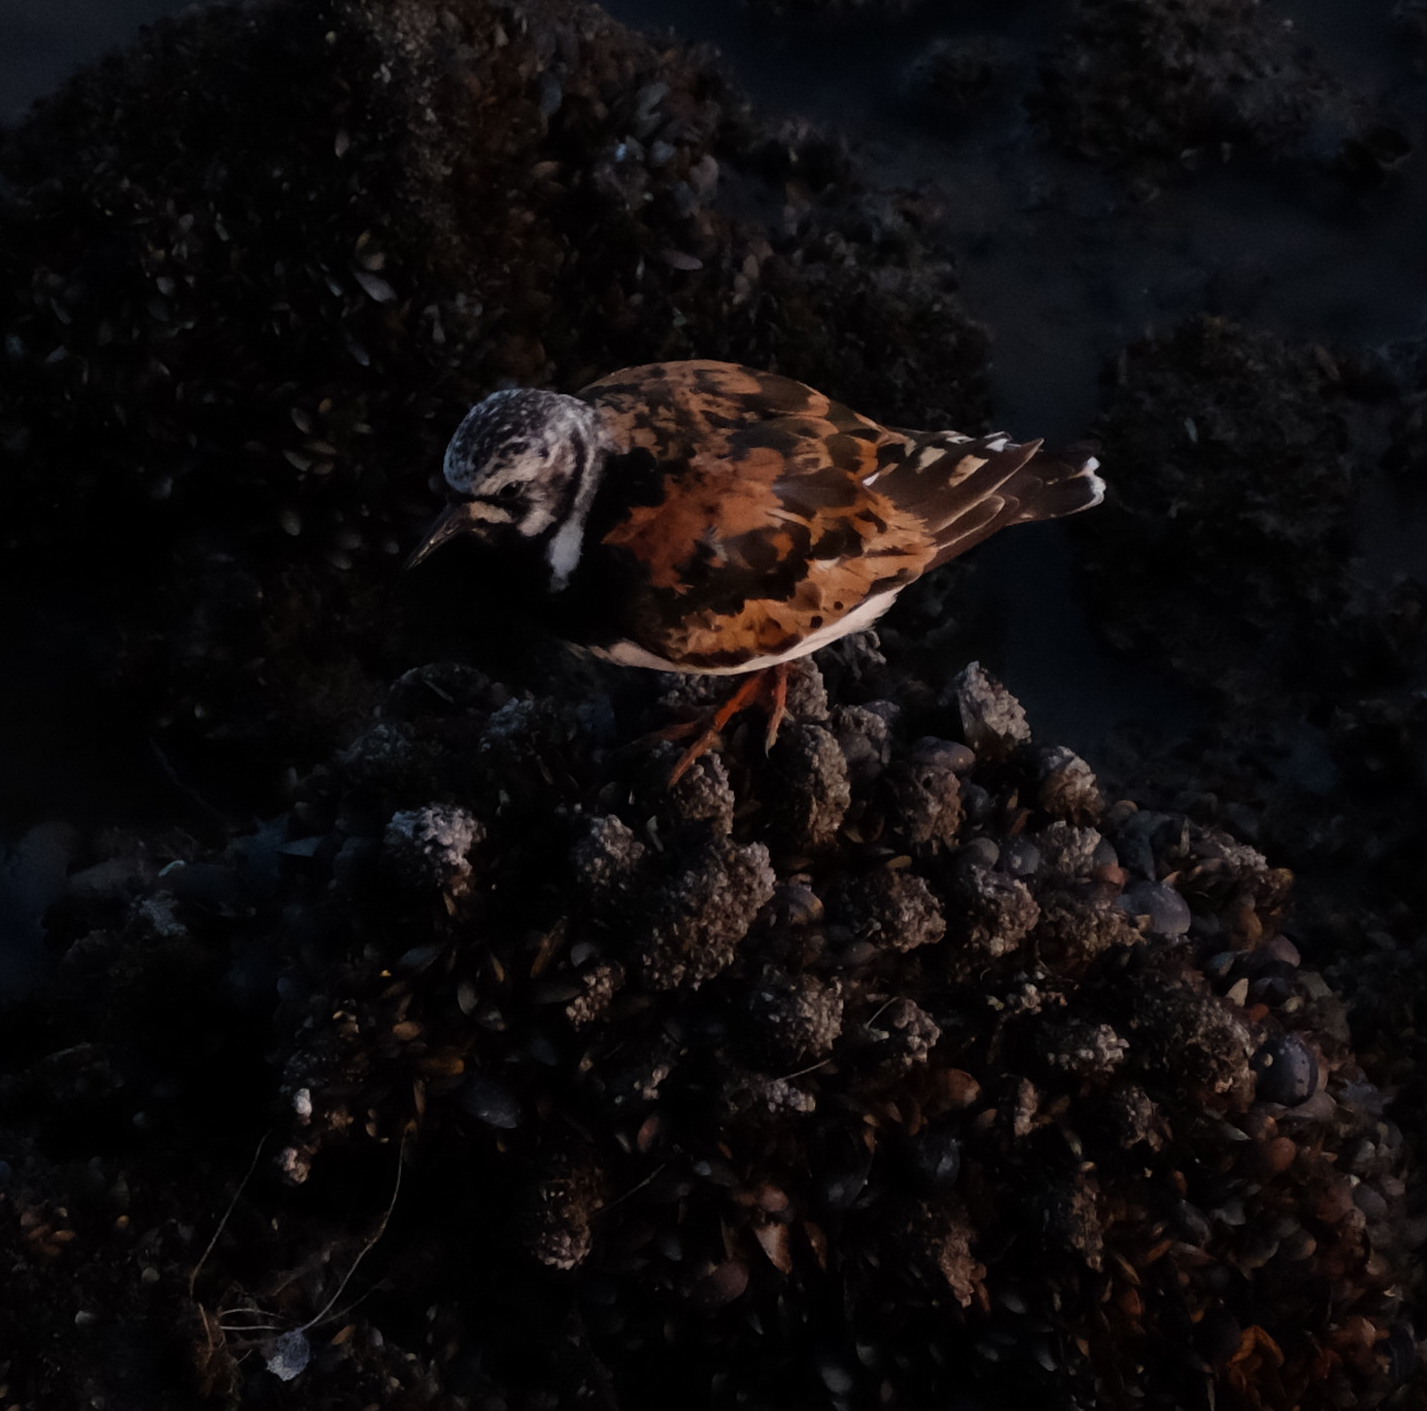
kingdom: Animalia
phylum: Chordata
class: Aves
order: Charadriiformes
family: Scolopacidae
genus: Arenaria
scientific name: Arenaria interpres
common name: Ruddy turnstone
